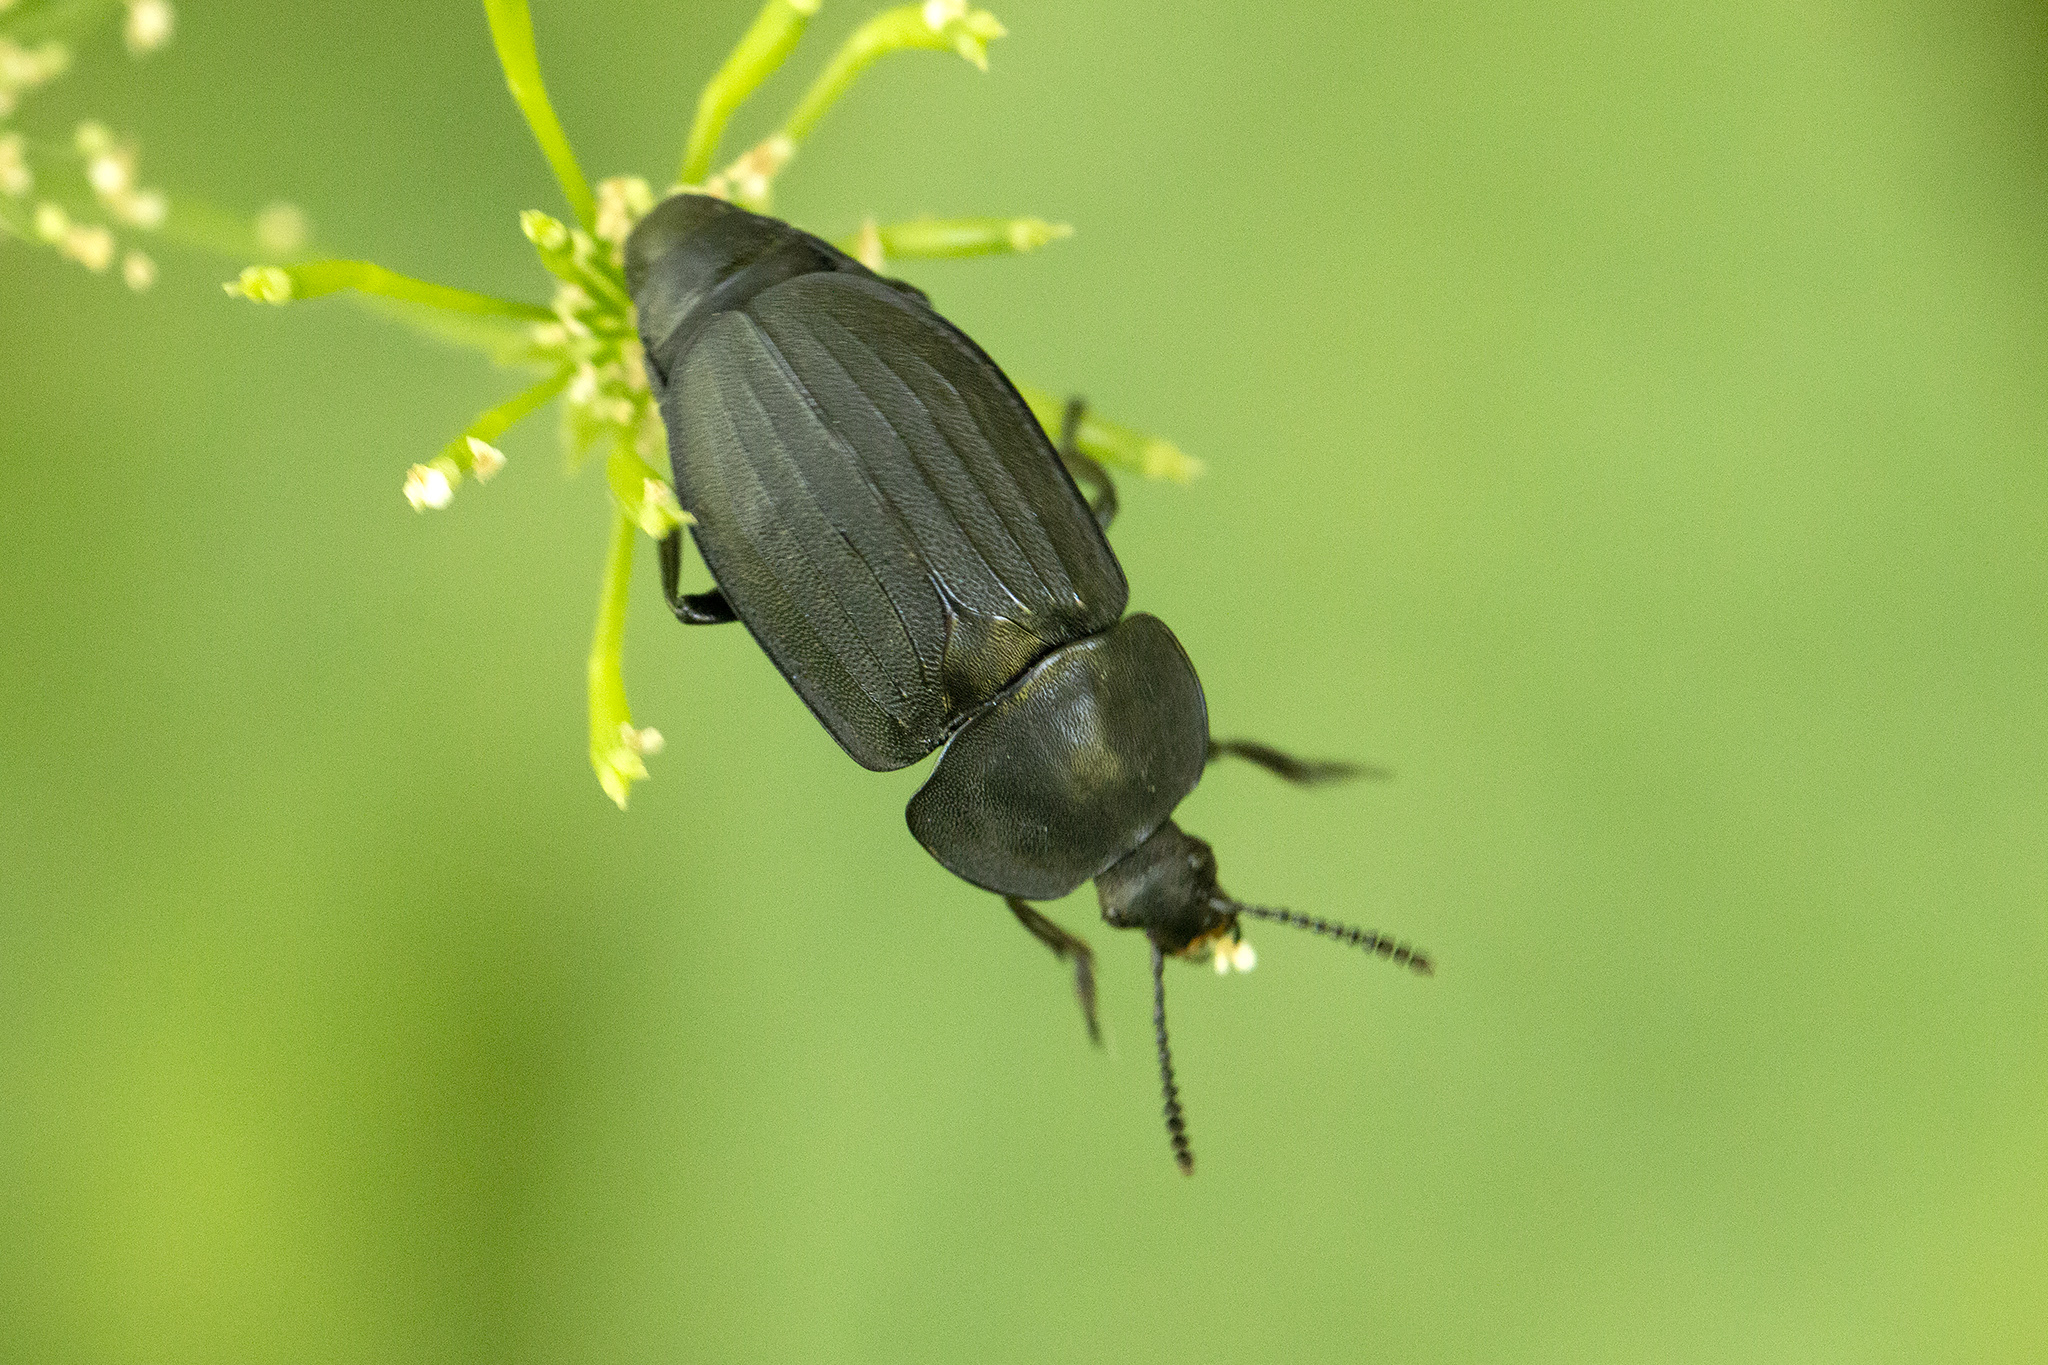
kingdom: Animalia
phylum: Arthropoda
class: Insecta
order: Coleoptera
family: Staphylinidae
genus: Silpha
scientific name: Silpha tristis
